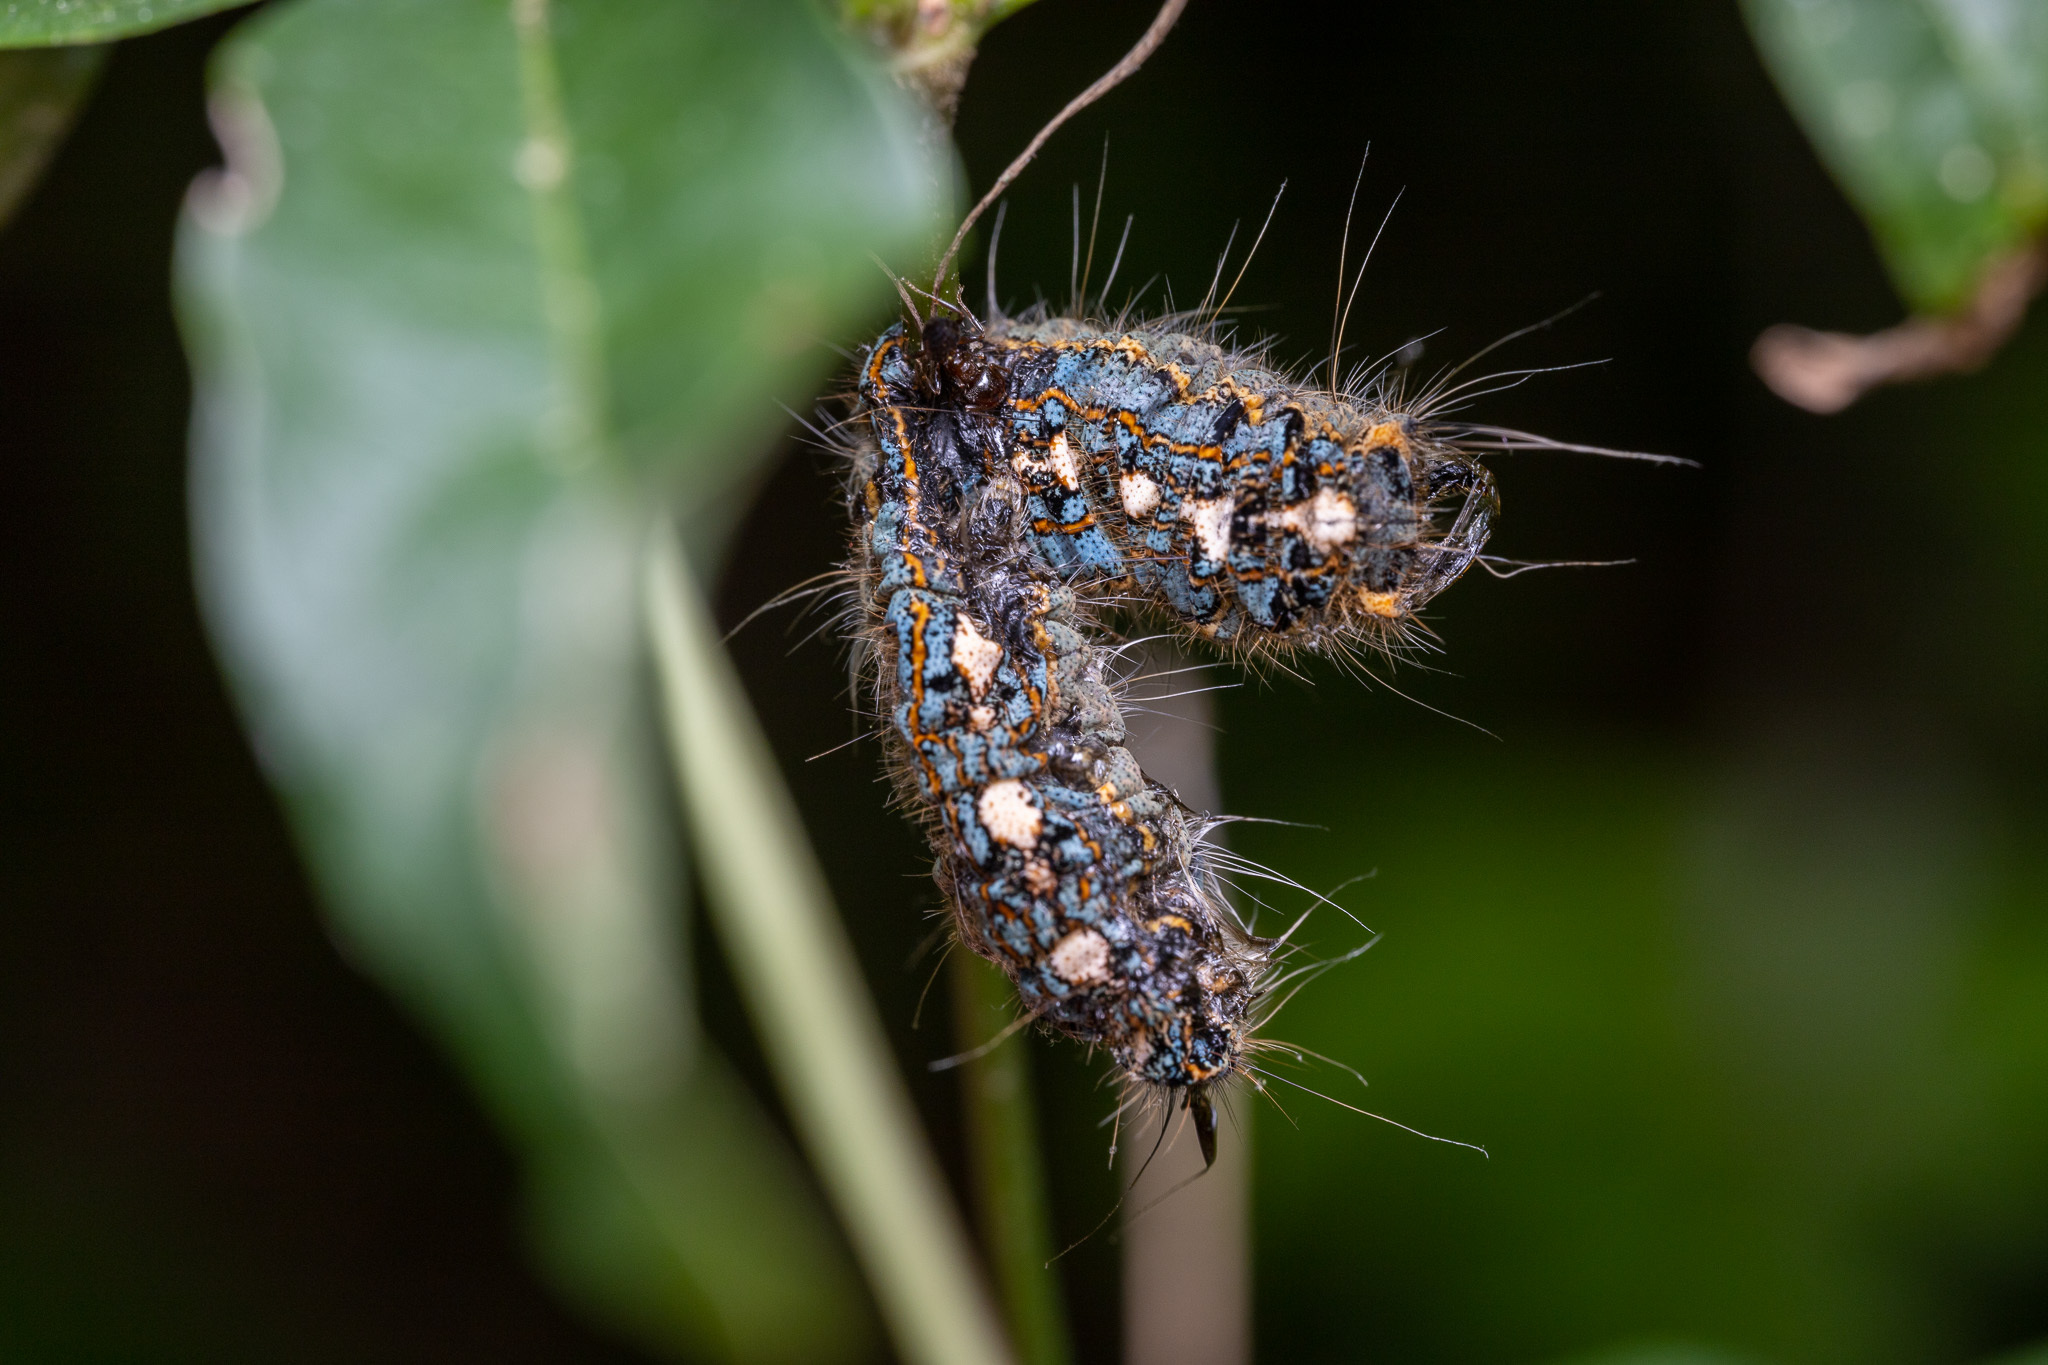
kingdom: Animalia
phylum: Arthropoda
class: Insecta
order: Lepidoptera
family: Lasiocampidae
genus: Malacosoma
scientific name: Malacosoma disstria
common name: Forest tent caterpillar
